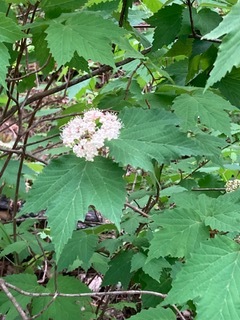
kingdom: Plantae
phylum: Tracheophyta
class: Magnoliopsida
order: Dipsacales
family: Viburnaceae
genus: Viburnum
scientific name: Viburnum acerifolium
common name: Dockmackie
